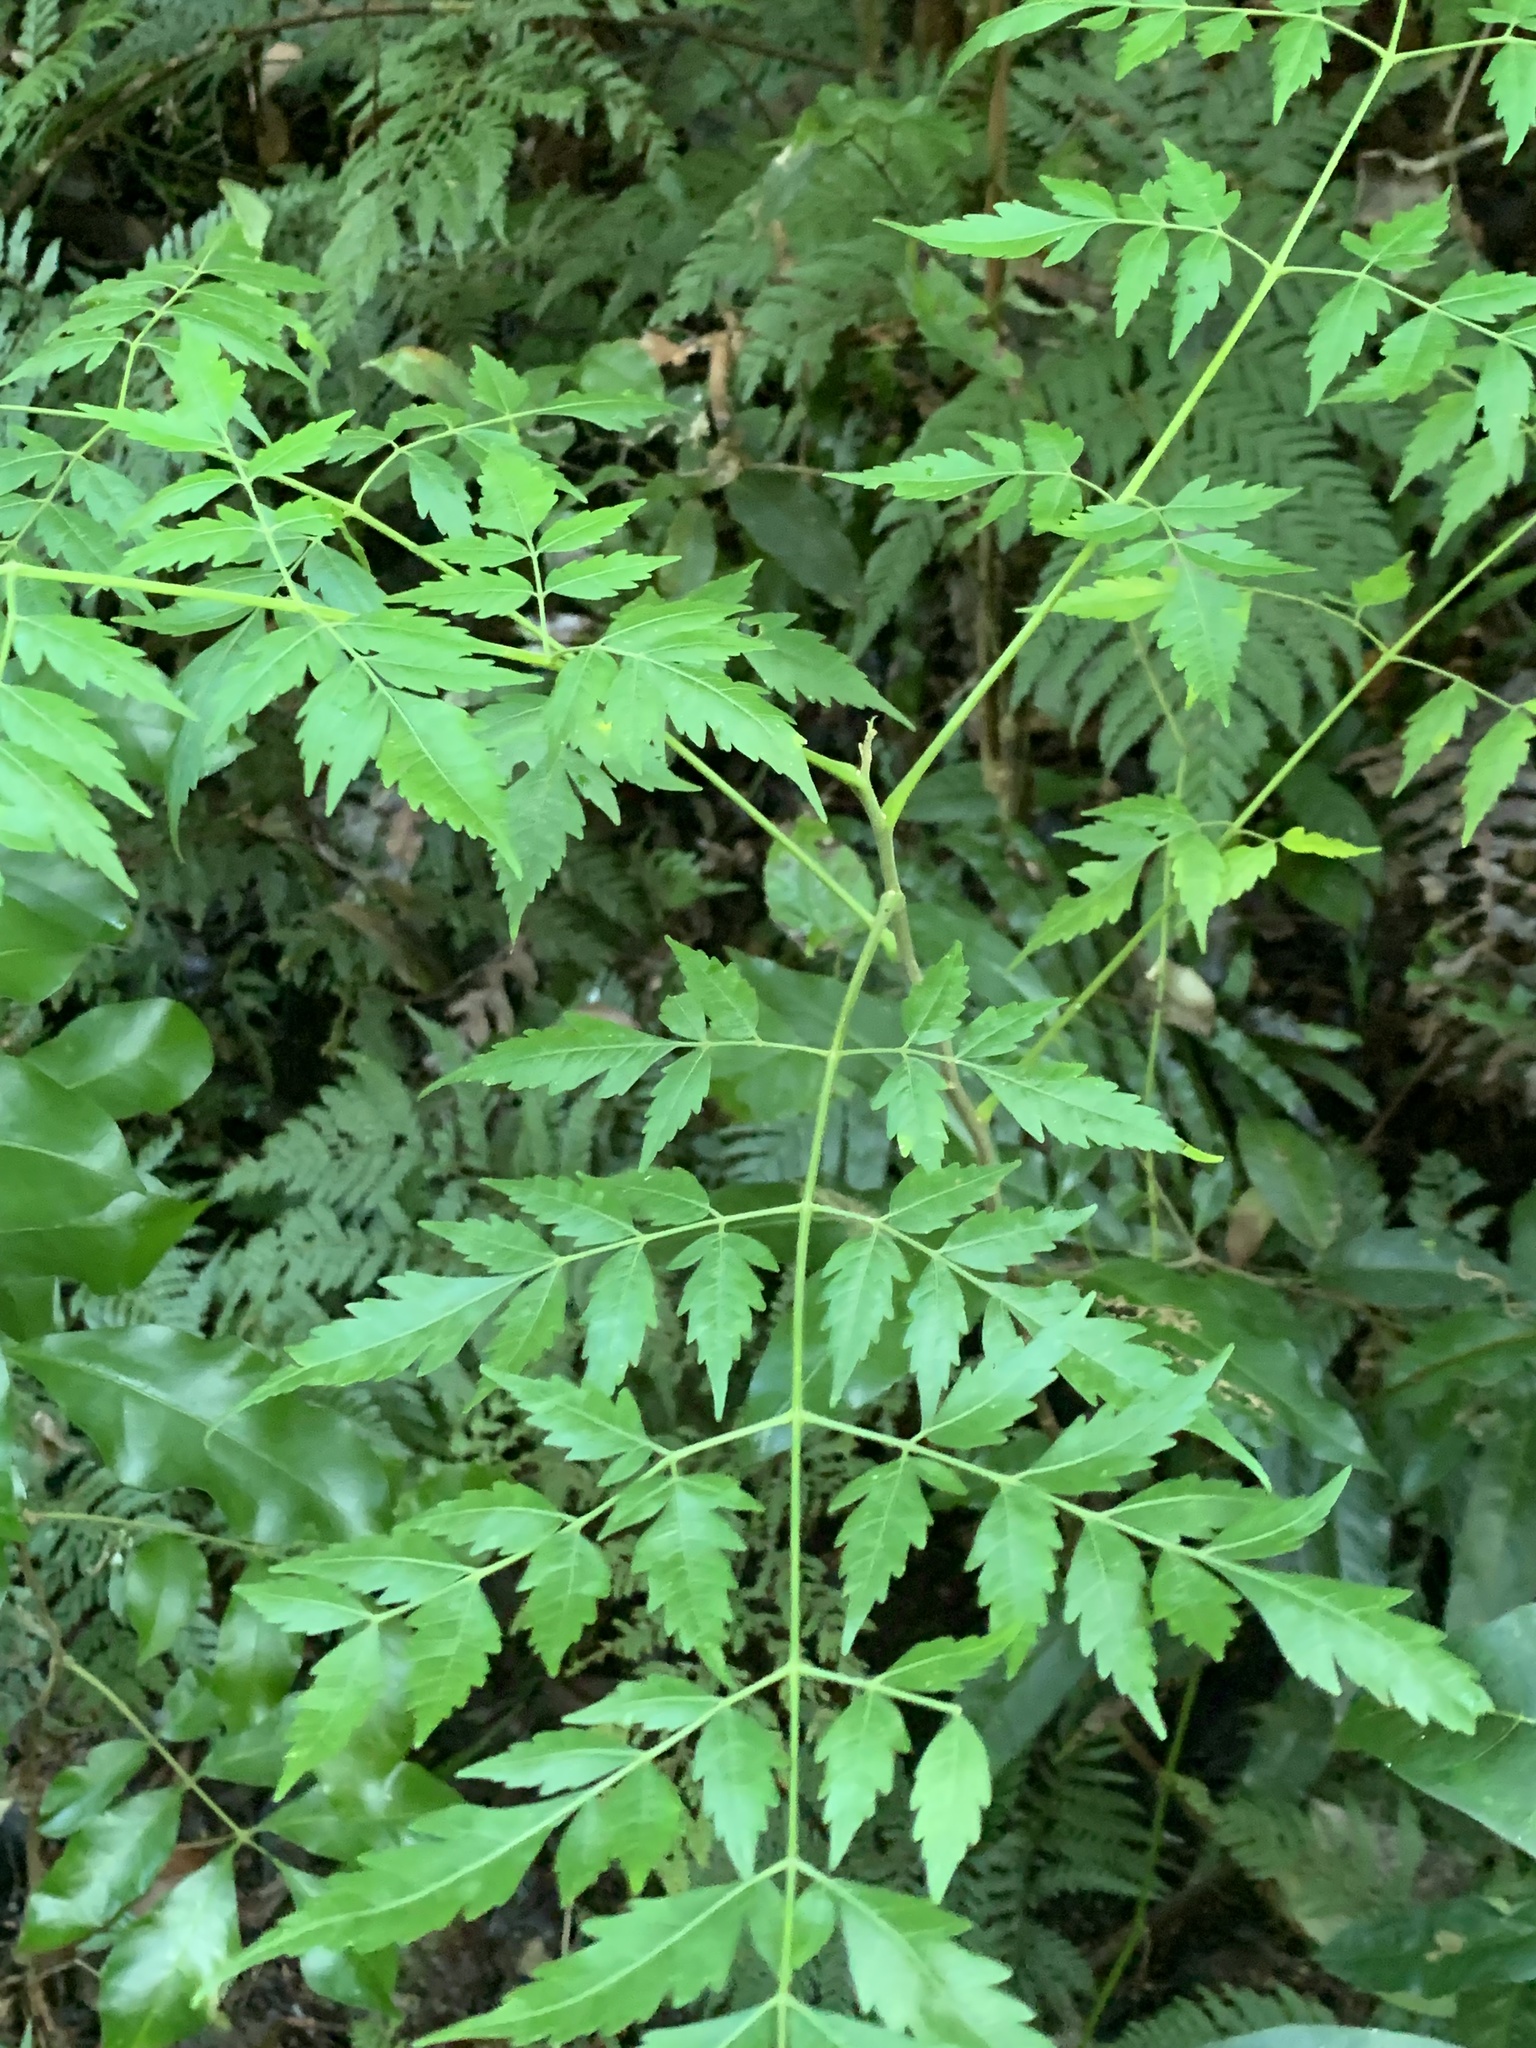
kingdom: Plantae
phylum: Tracheophyta
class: Magnoliopsida
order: Sapindales
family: Meliaceae
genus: Melia
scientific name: Melia azedarach
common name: Chinaberrytree
